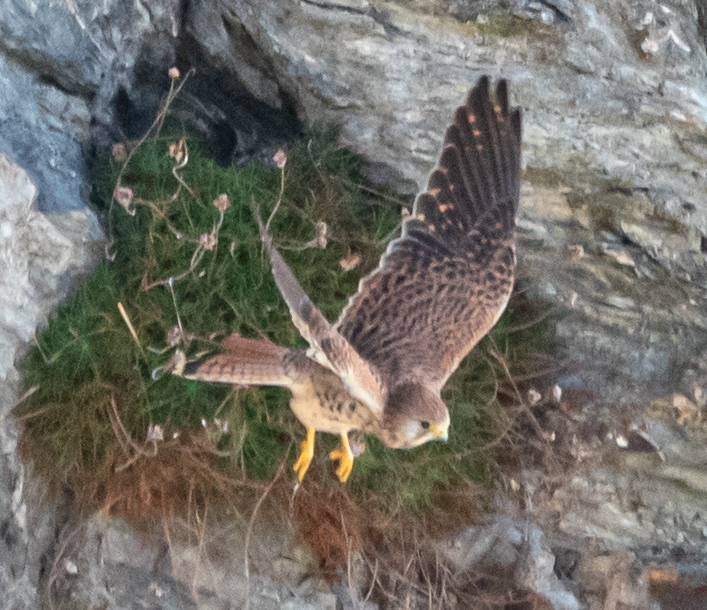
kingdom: Animalia
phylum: Chordata
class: Aves
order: Falconiformes
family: Falconidae
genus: Falco
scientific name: Falco tinnunculus
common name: Common kestrel
